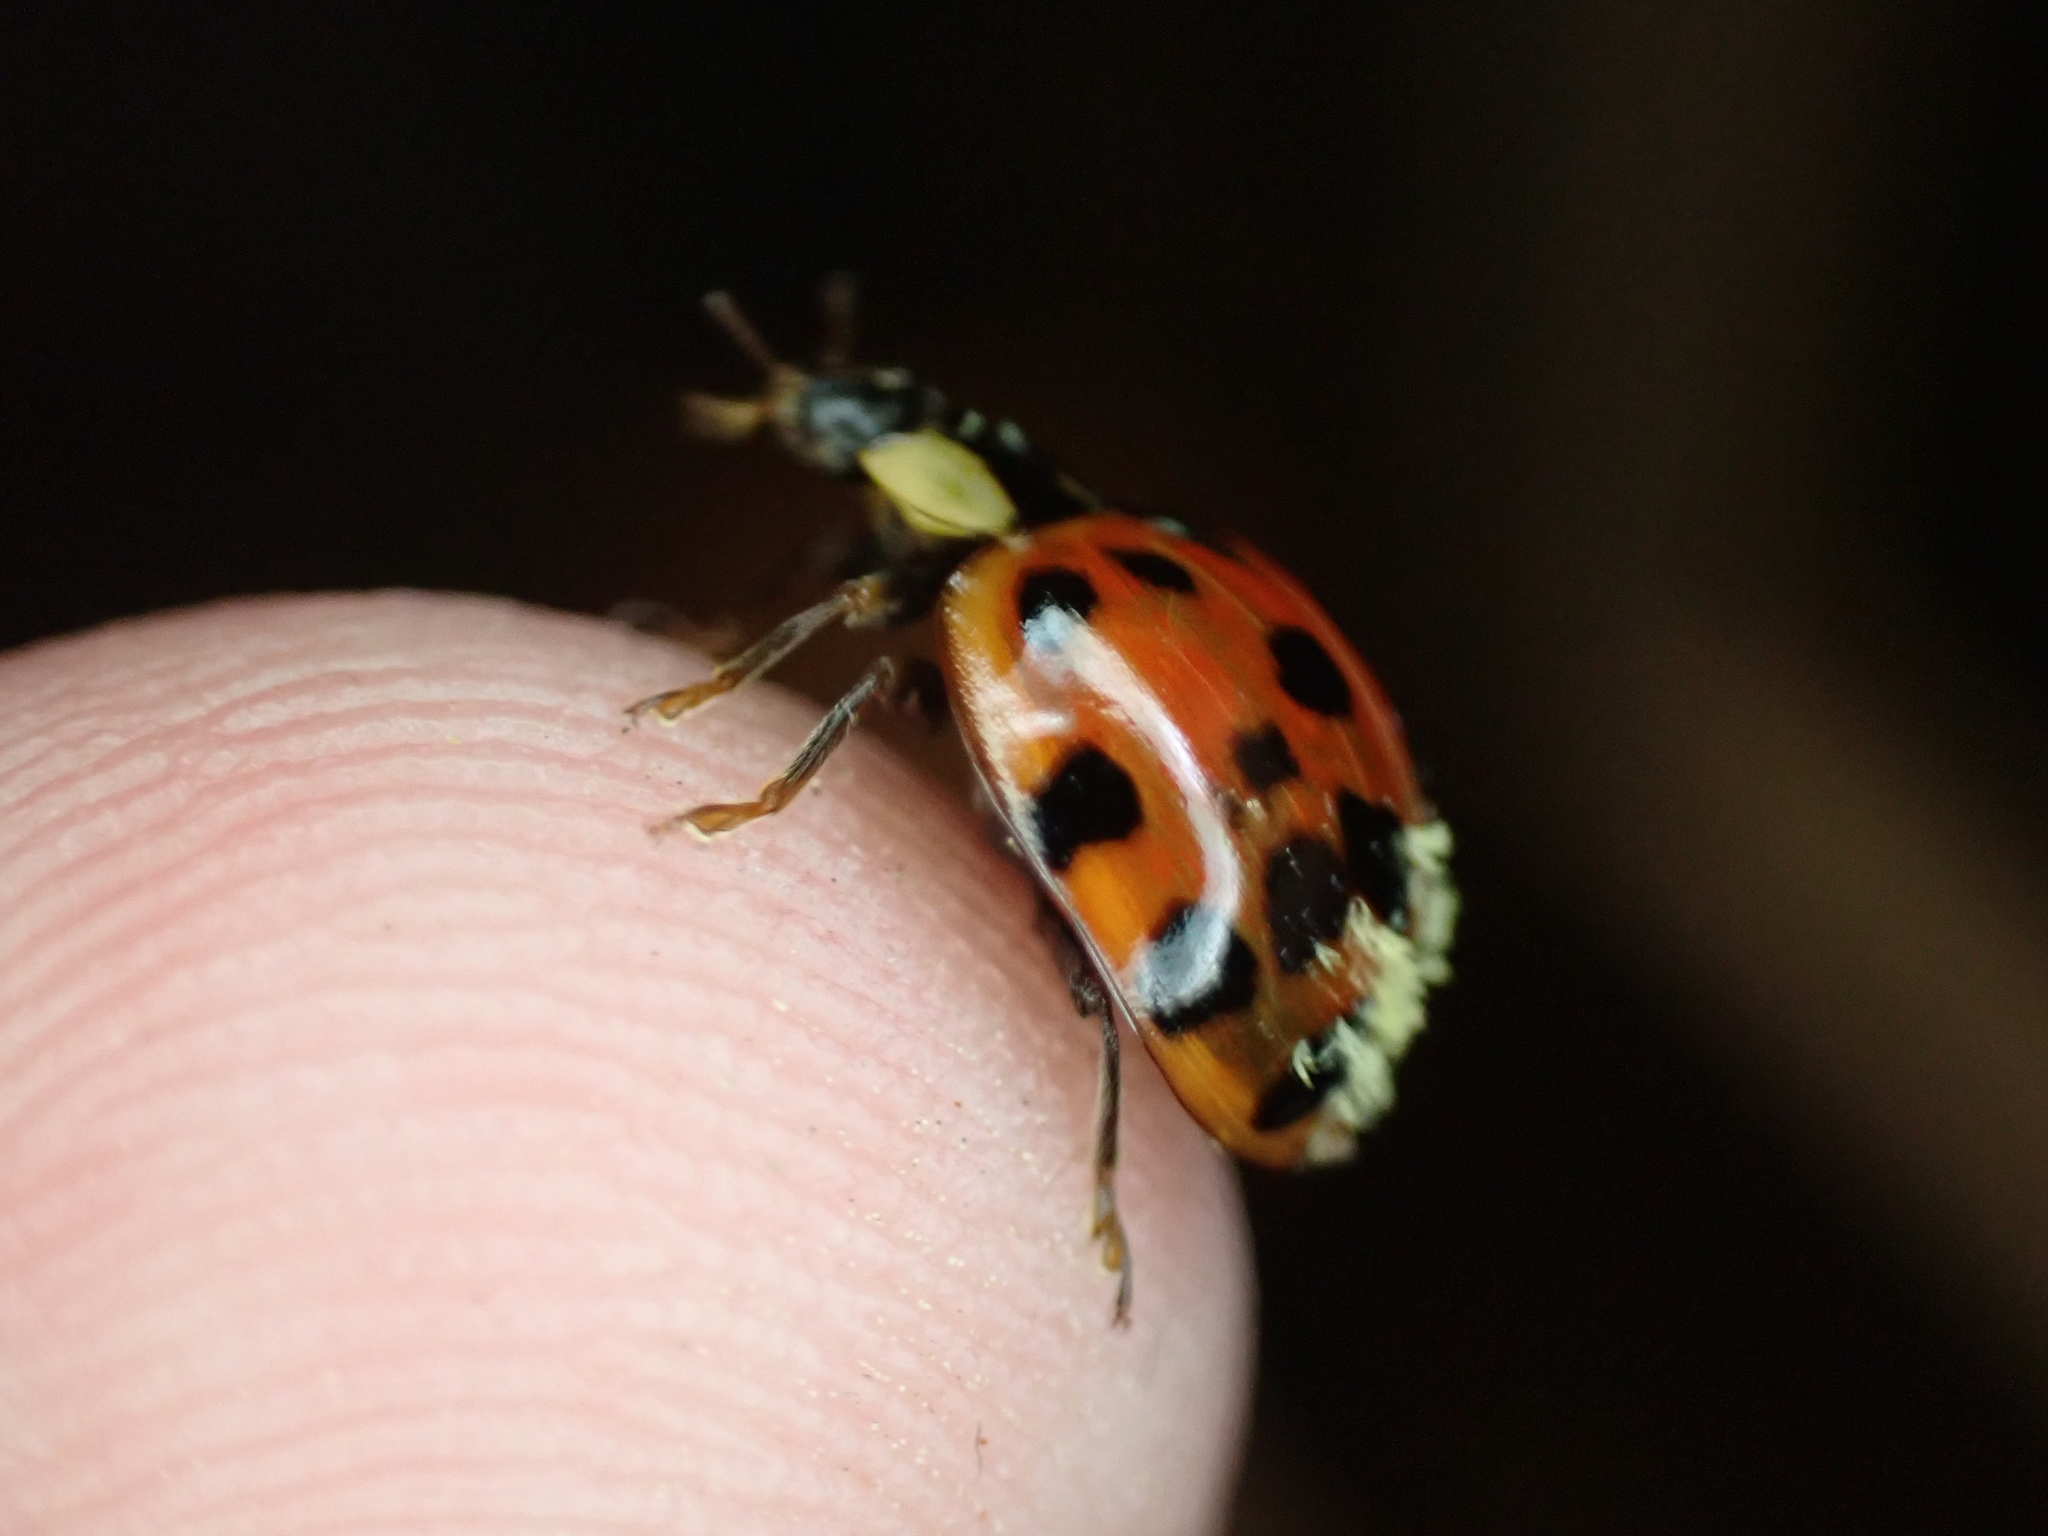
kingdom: Animalia
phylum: Arthropoda
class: Insecta
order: Coleoptera
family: Coccinellidae
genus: Harmonia
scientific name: Harmonia axyridis
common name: Harlequin ladybird
